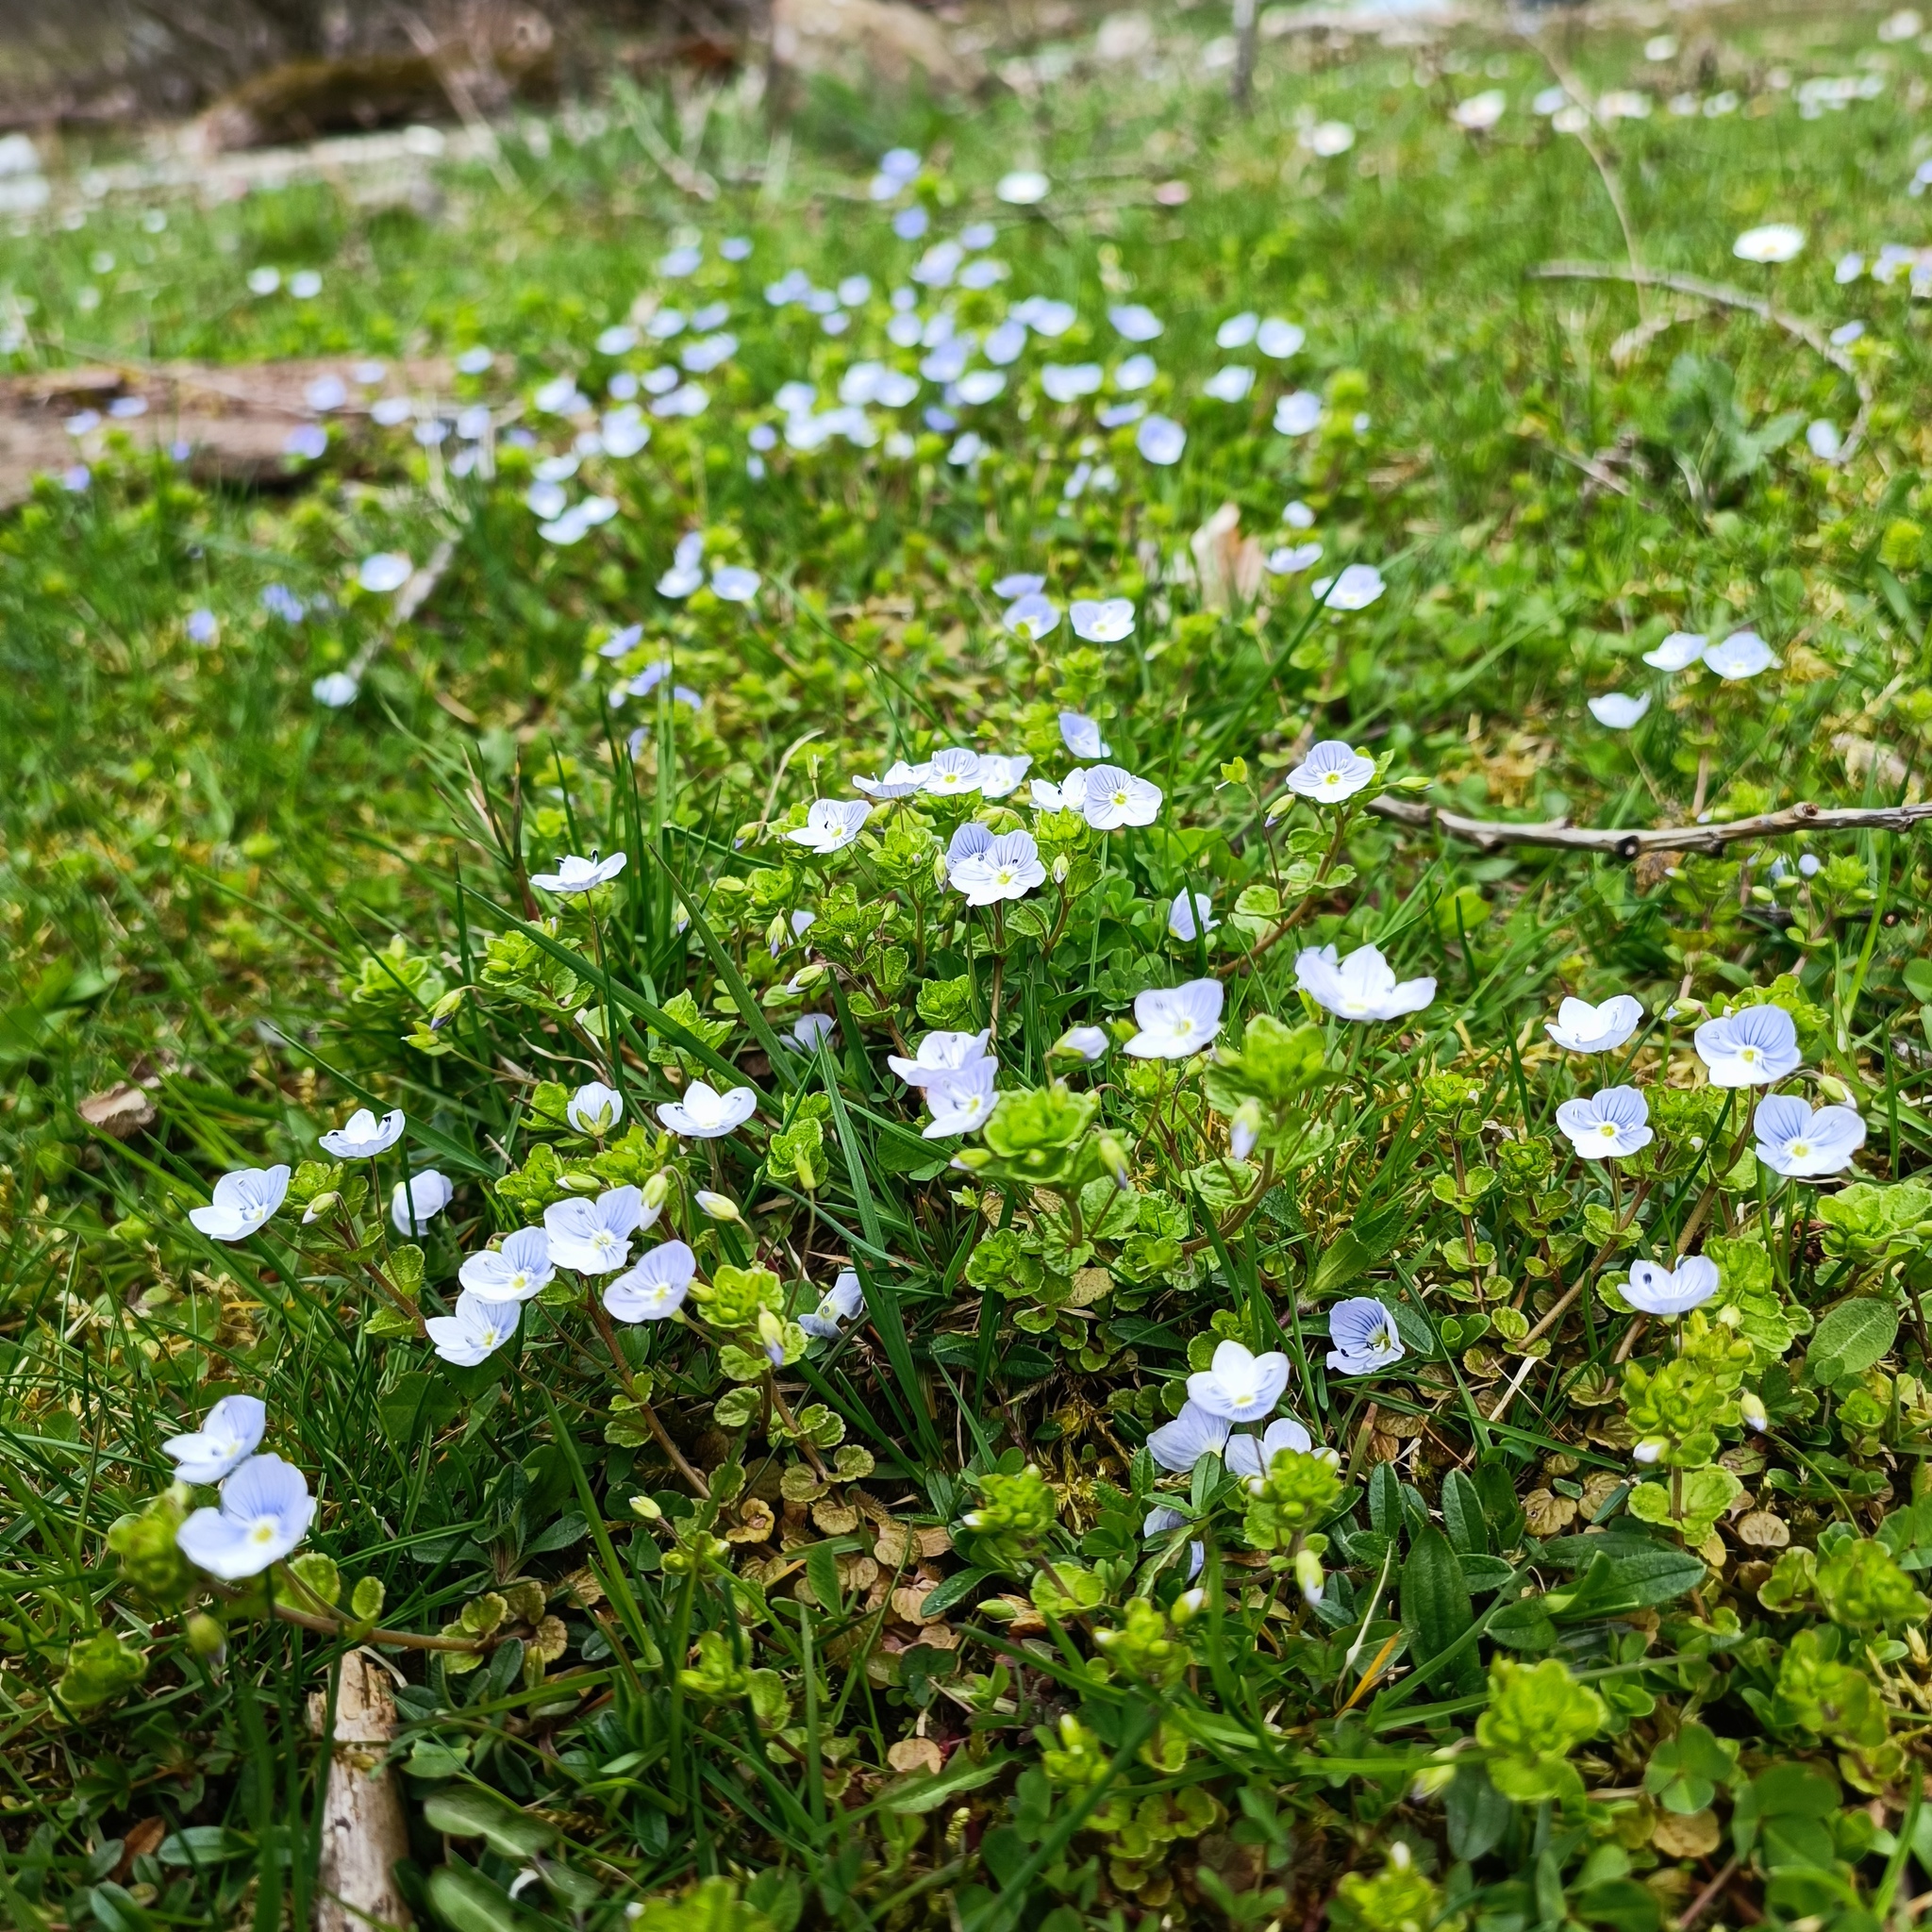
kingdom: Plantae
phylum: Tracheophyta
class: Magnoliopsida
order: Lamiales
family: Plantaginaceae
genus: Veronica
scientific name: Veronica filiformis
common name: Slender speedwell
